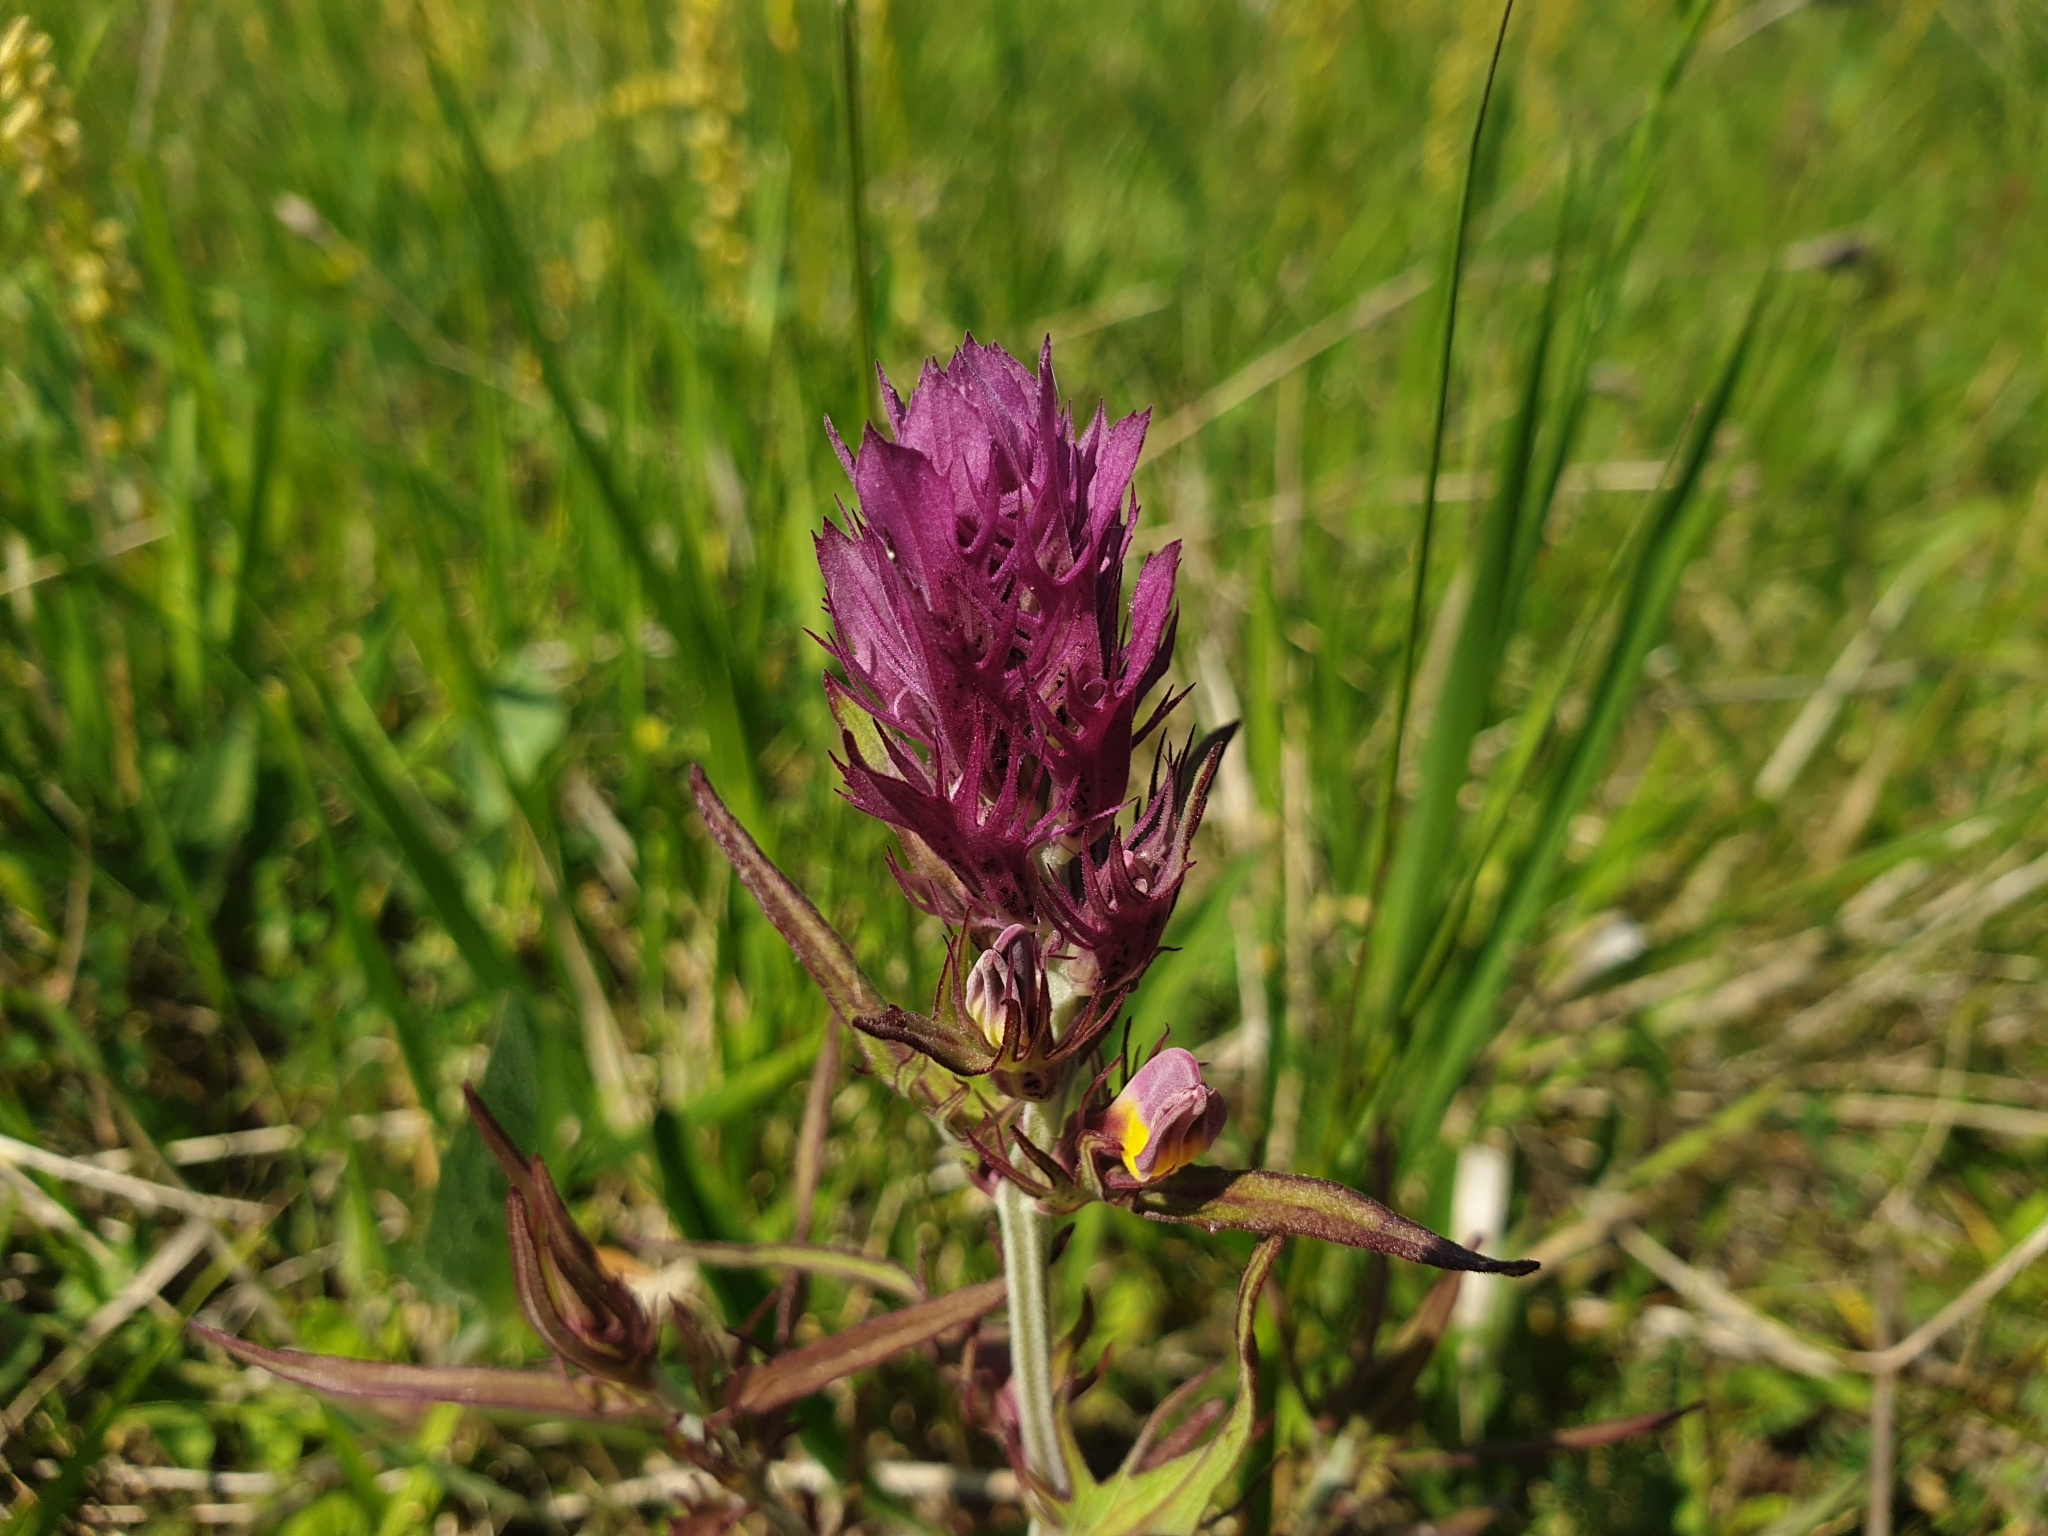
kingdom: Plantae
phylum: Tracheophyta
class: Magnoliopsida
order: Lamiales
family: Orobanchaceae
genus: Melampyrum
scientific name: Melampyrum arvense
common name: Field cow-wheat
